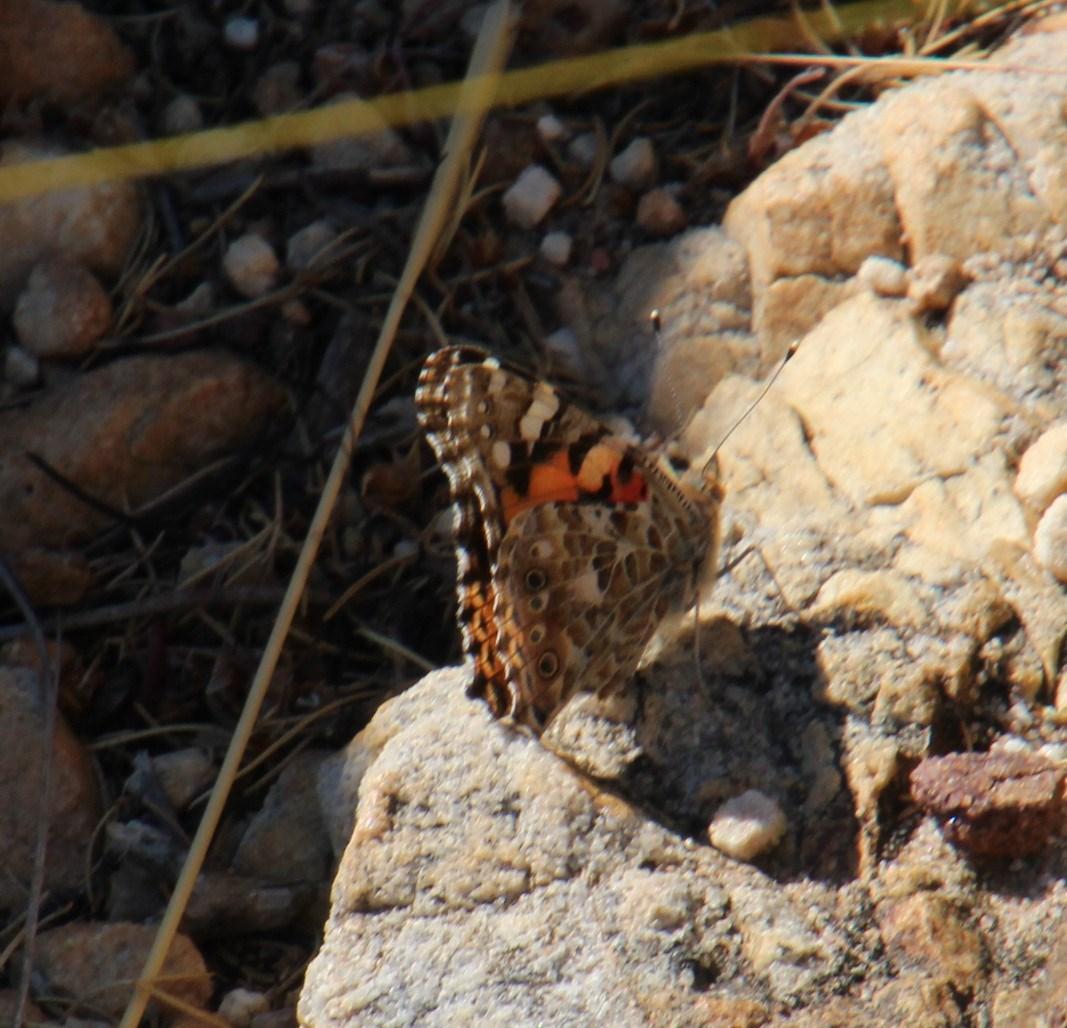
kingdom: Animalia
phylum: Arthropoda
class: Insecta
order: Lepidoptera
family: Nymphalidae
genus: Vanessa
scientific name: Vanessa cardui
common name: Painted lady
